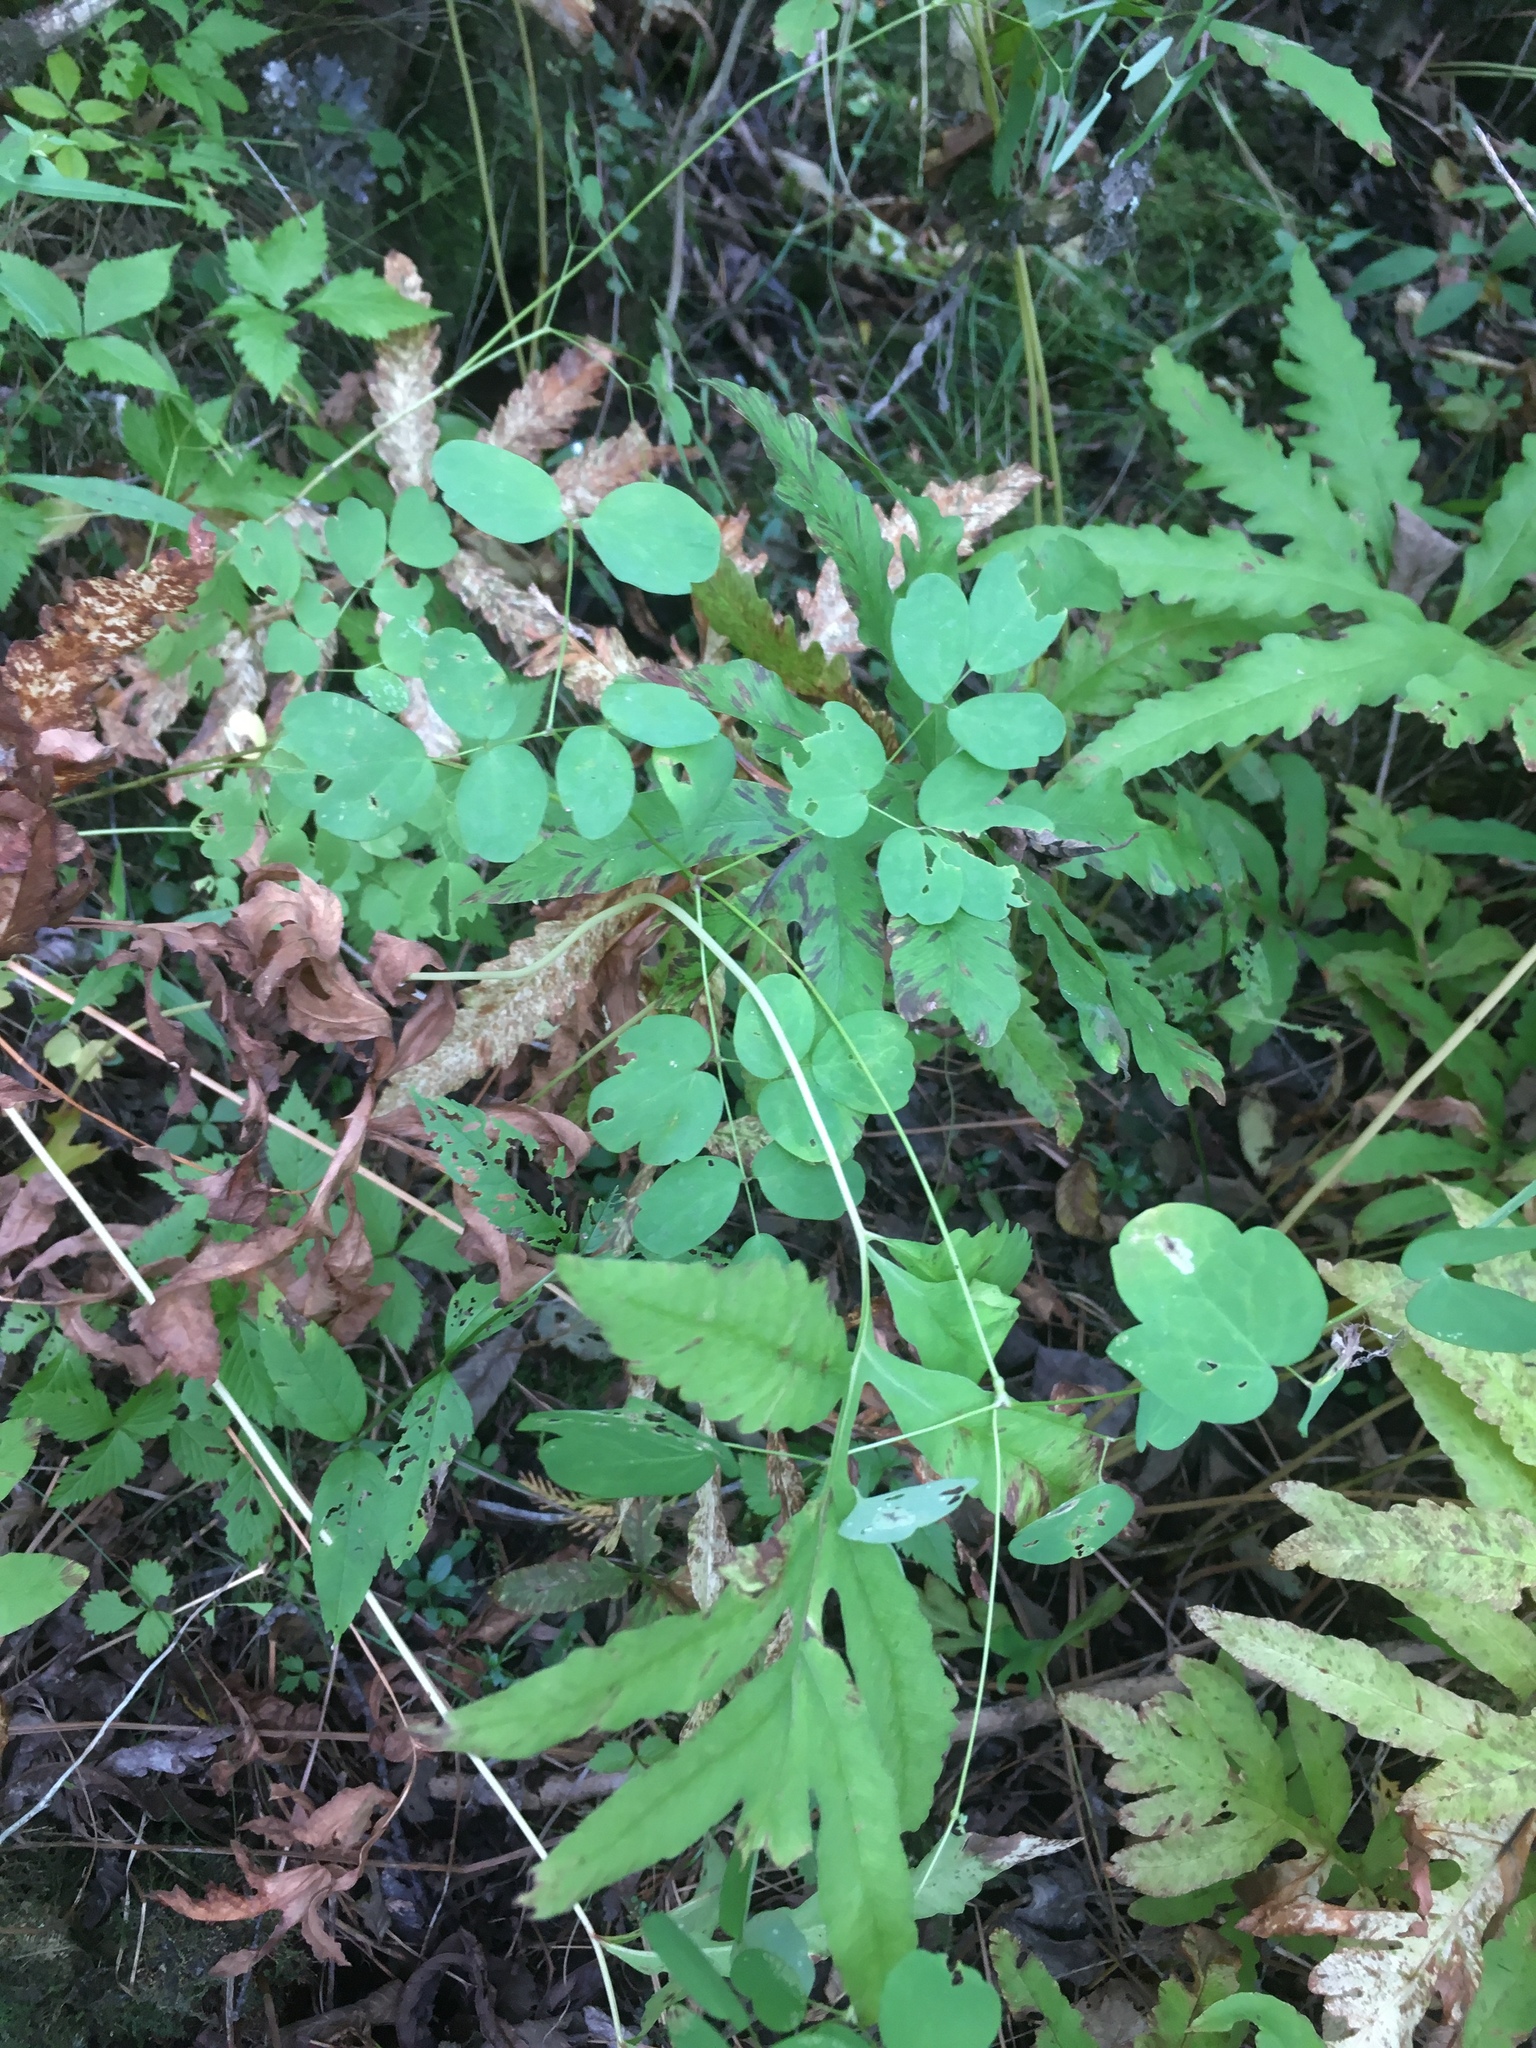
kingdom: Plantae
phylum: Tracheophyta
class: Magnoliopsida
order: Ranunculales
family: Ranunculaceae
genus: Thalictrum
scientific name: Thalictrum pubescens
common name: King-of-the-meadow
